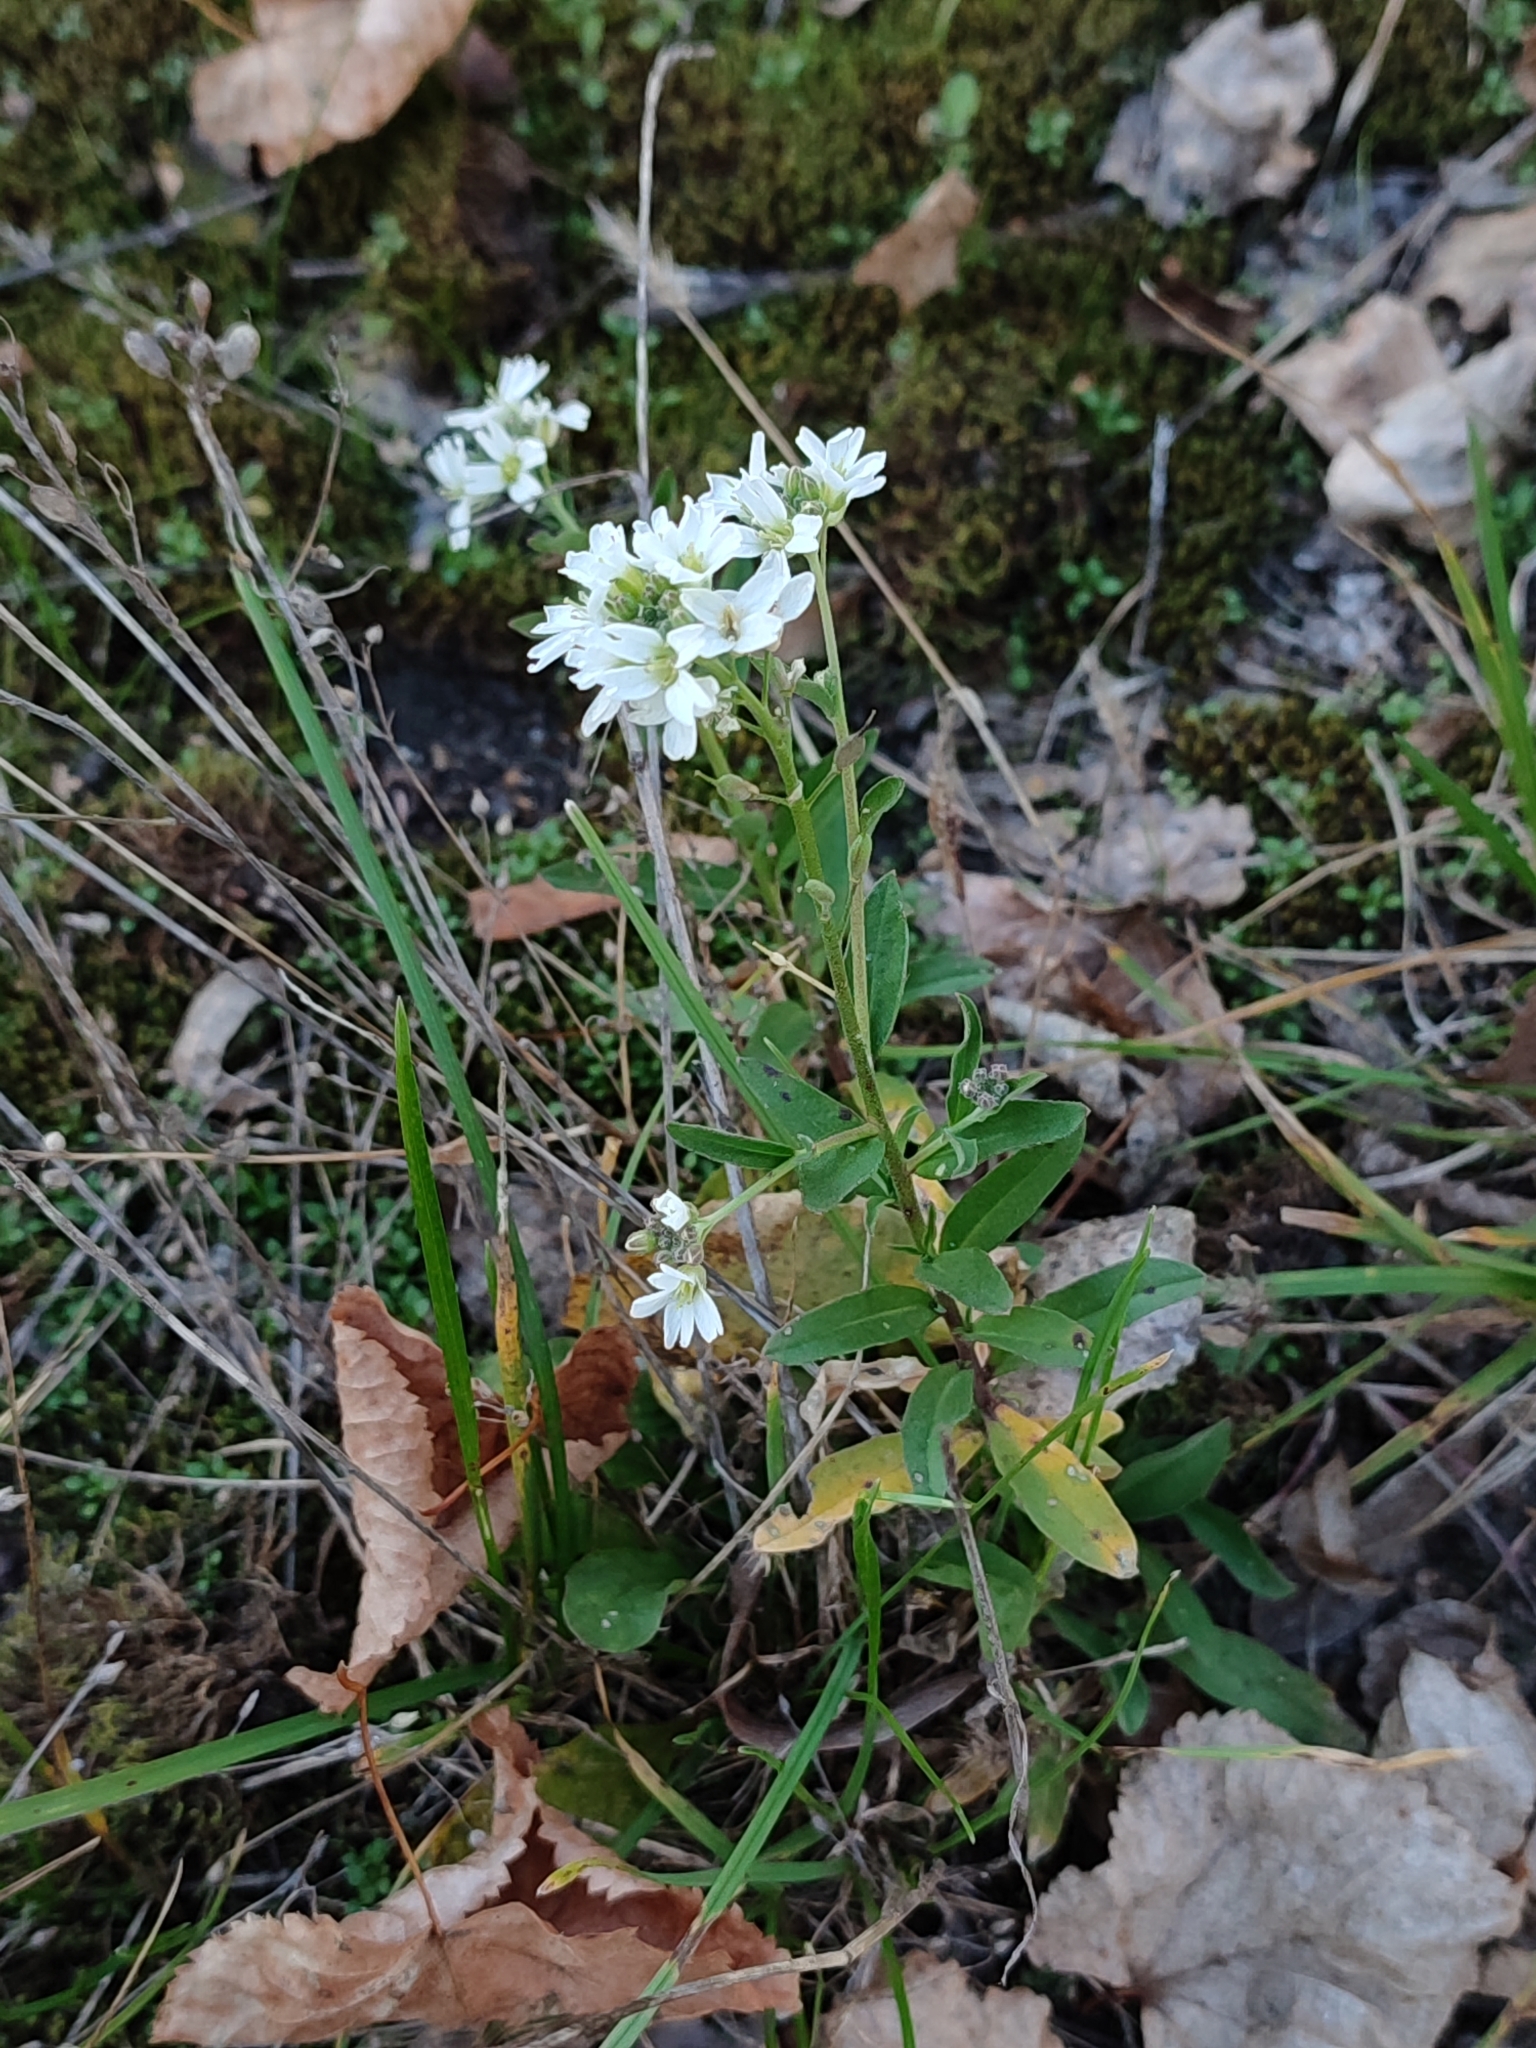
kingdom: Plantae
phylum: Tracheophyta
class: Magnoliopsida
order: Brassicales
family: Brassicaceae
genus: Berteroa
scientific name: Berteroa incana
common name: Hoary alison
